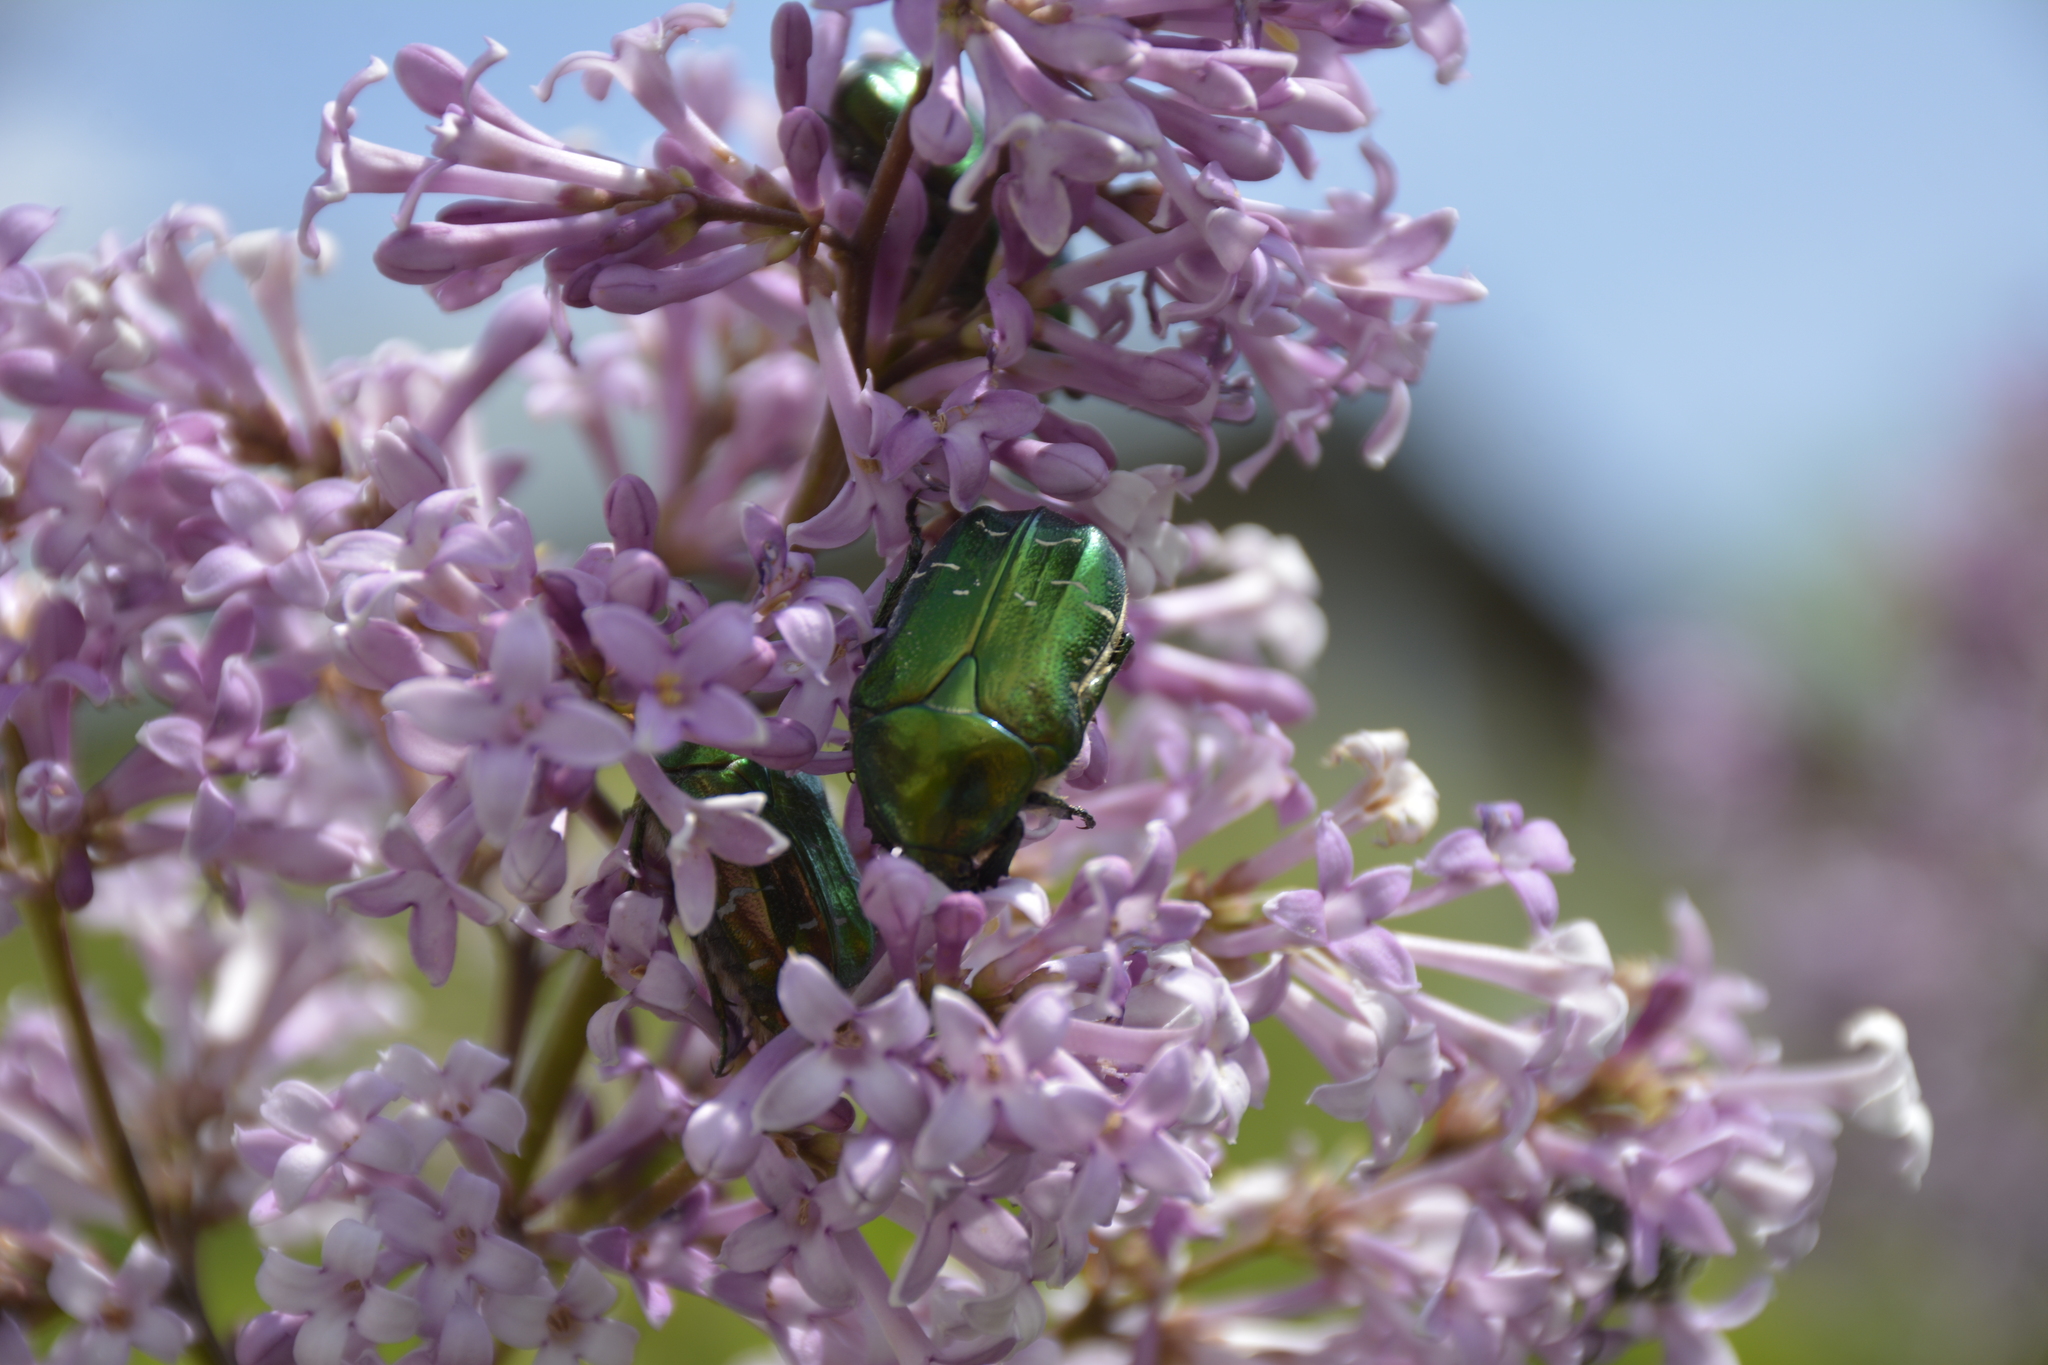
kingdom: Animalia
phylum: Arthropoda
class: Insecta
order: Coleoptera
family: Scarabaeidae
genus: Cetonia
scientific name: Cetonia aurata
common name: Rose chafer
